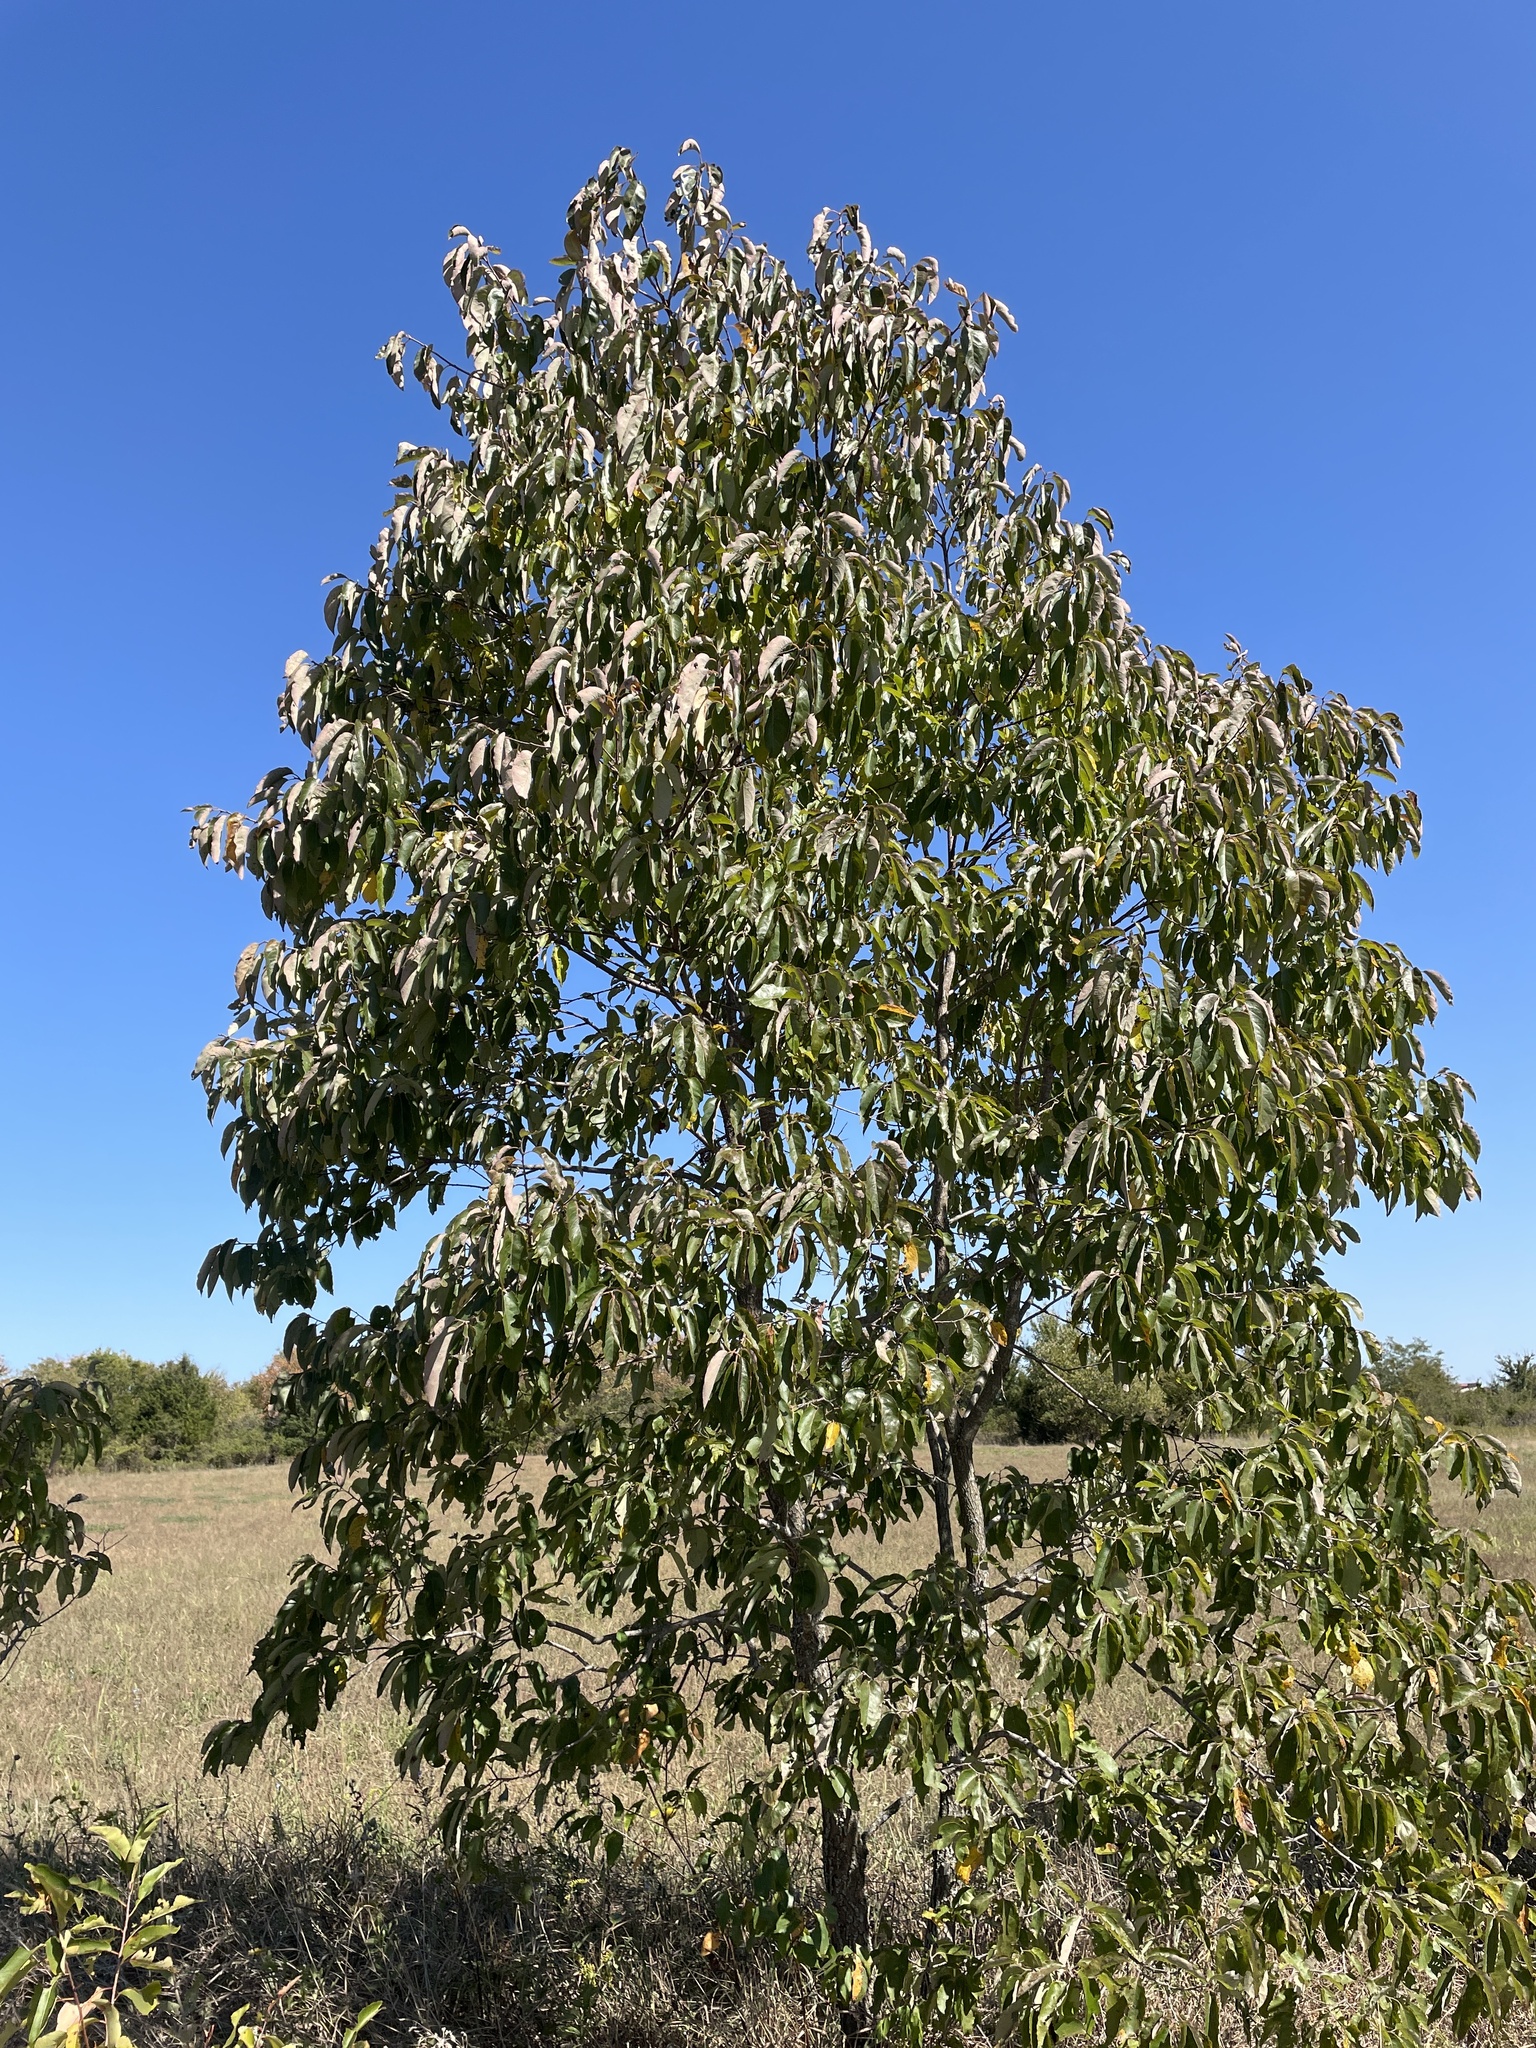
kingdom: Plantae
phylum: Tracheophyta
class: Magnoliopsida
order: Ericales
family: Ebenaceae
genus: Diospyros
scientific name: Diospyros virginiana
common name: Persimmon
